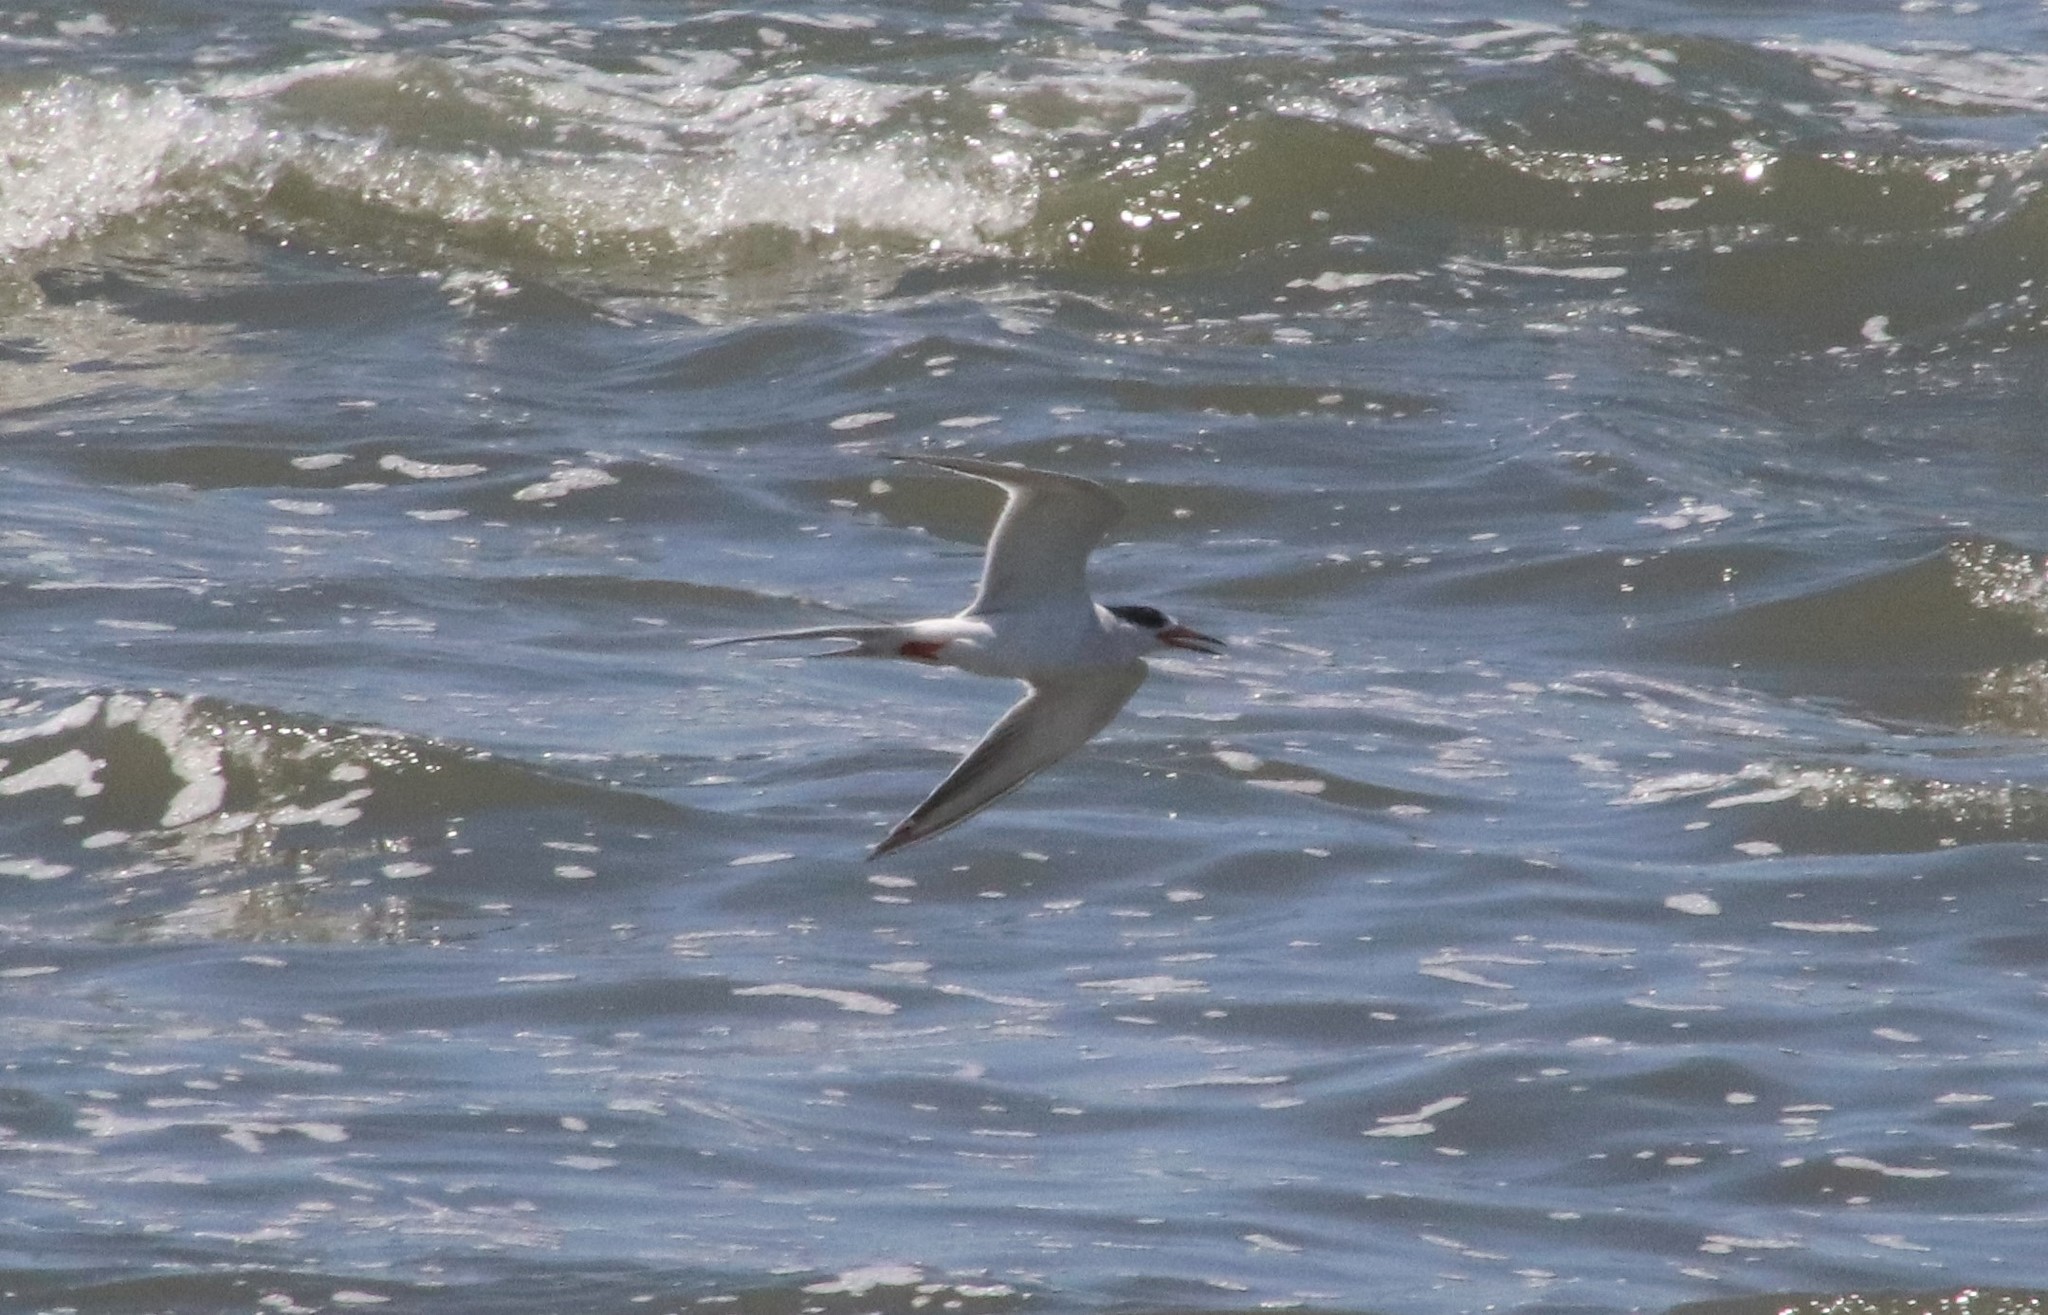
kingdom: Animalia
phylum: Chordata
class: Aves
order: Charadriiformes
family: Laridae
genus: Sterna
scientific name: Sterna forsteri
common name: Forster's tern
